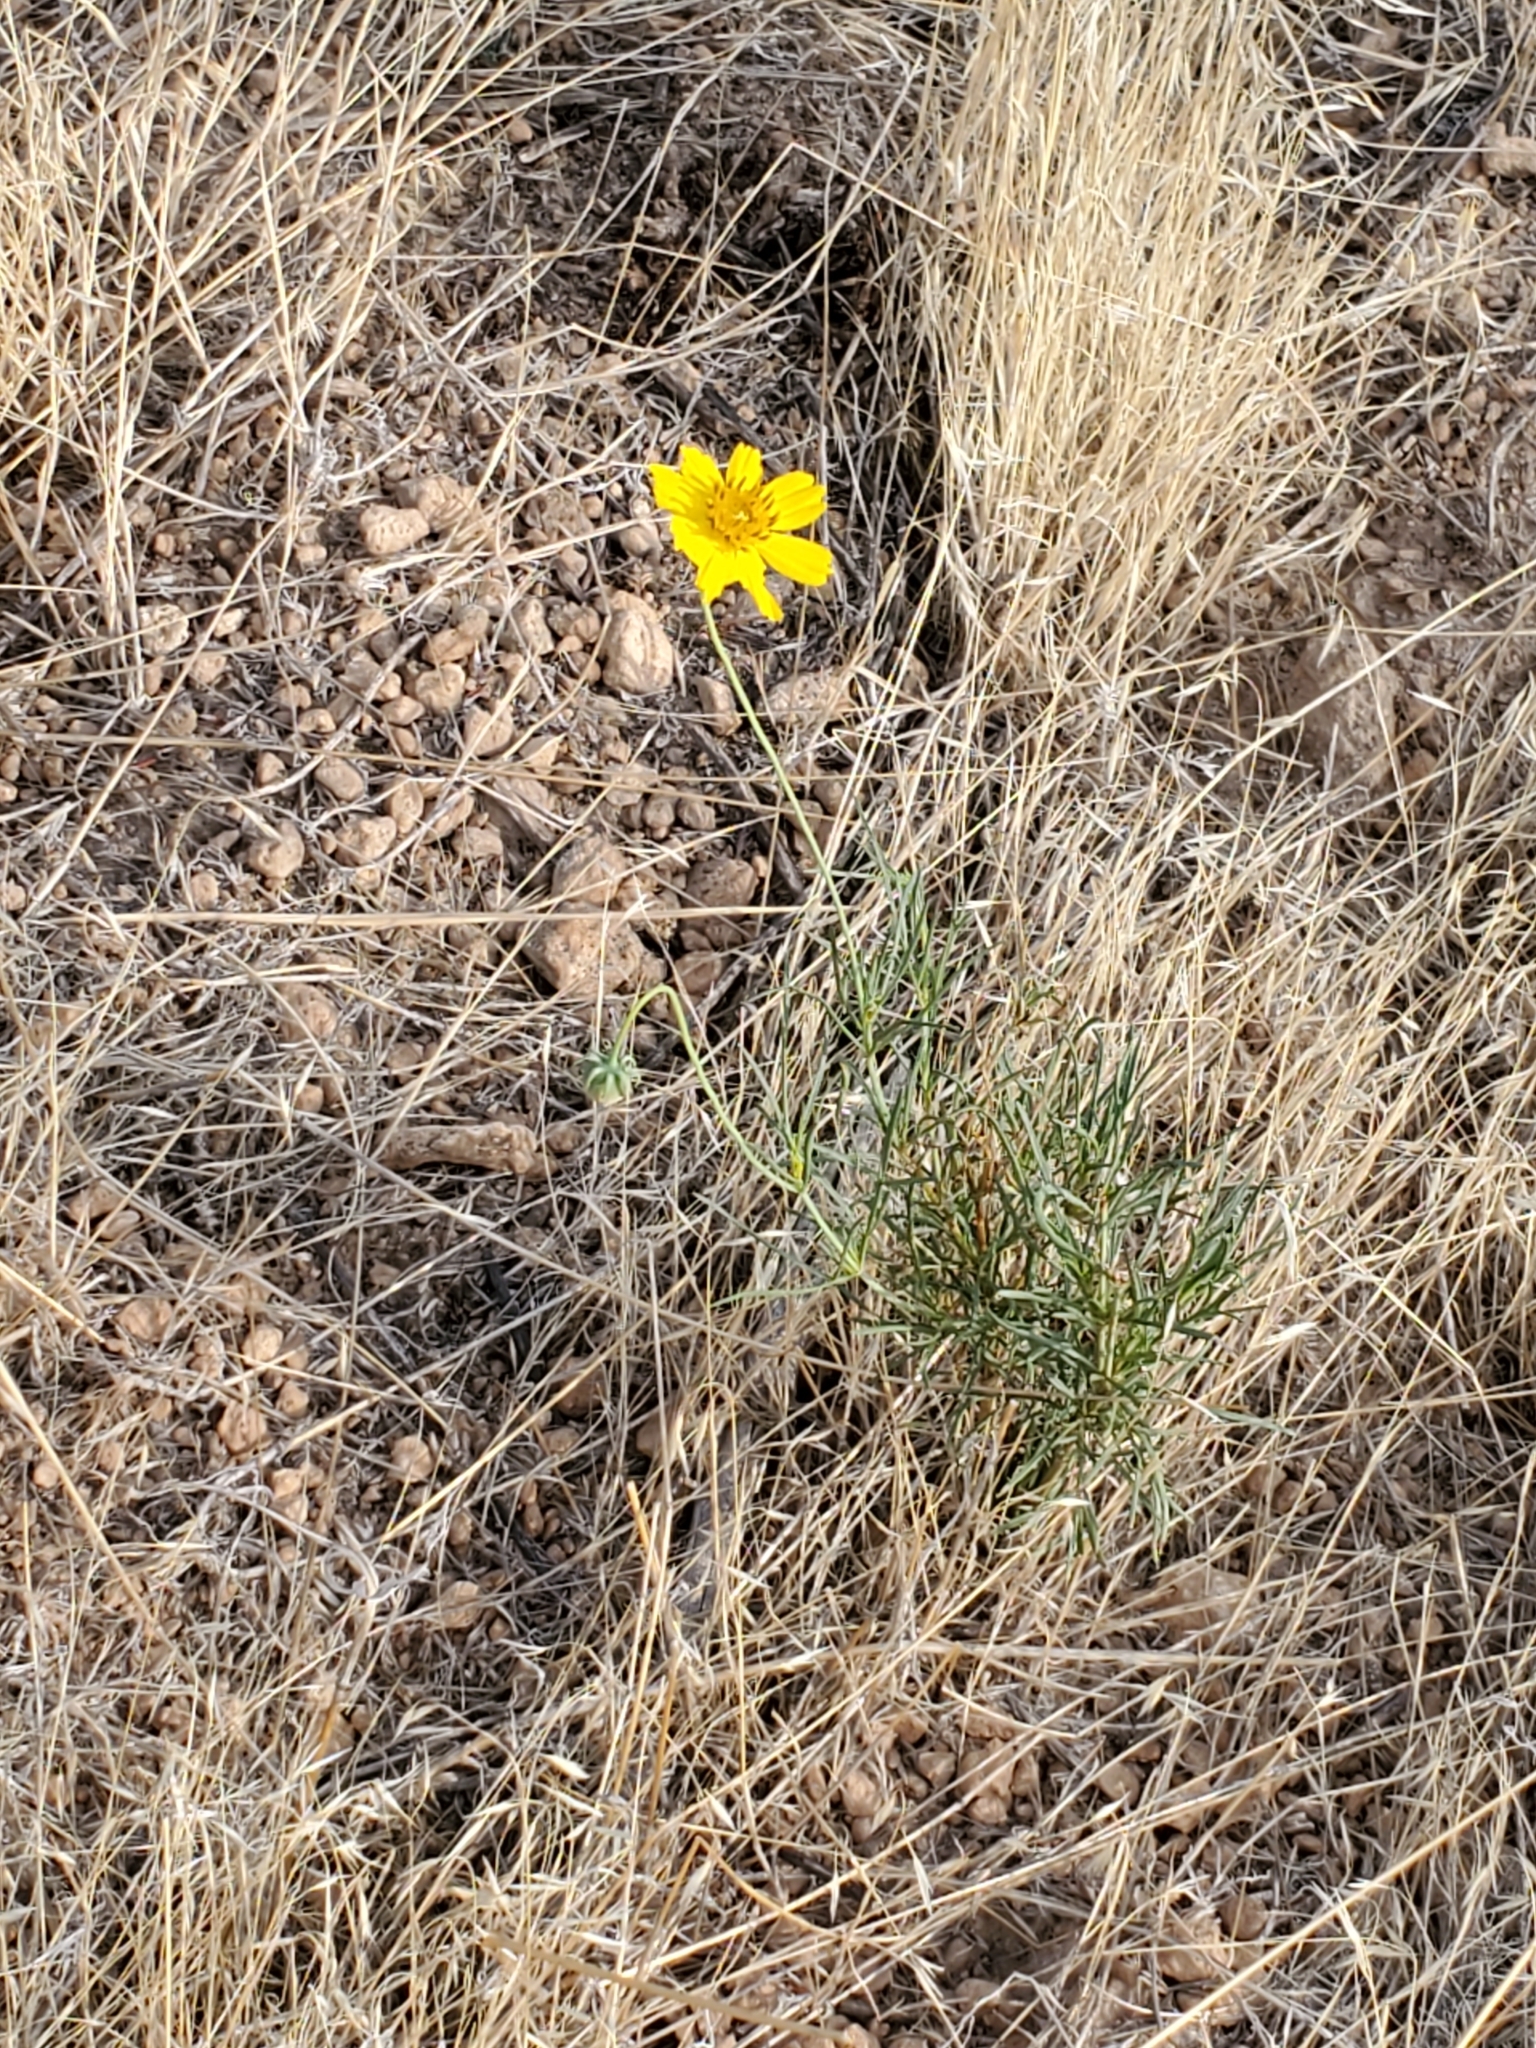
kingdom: Plantae
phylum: Tracheophyta
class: Magnoliopsida
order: Asterales
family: Asteraceae
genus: Thelesperma
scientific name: Thelesperma filifolium
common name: Stiff greenthread
